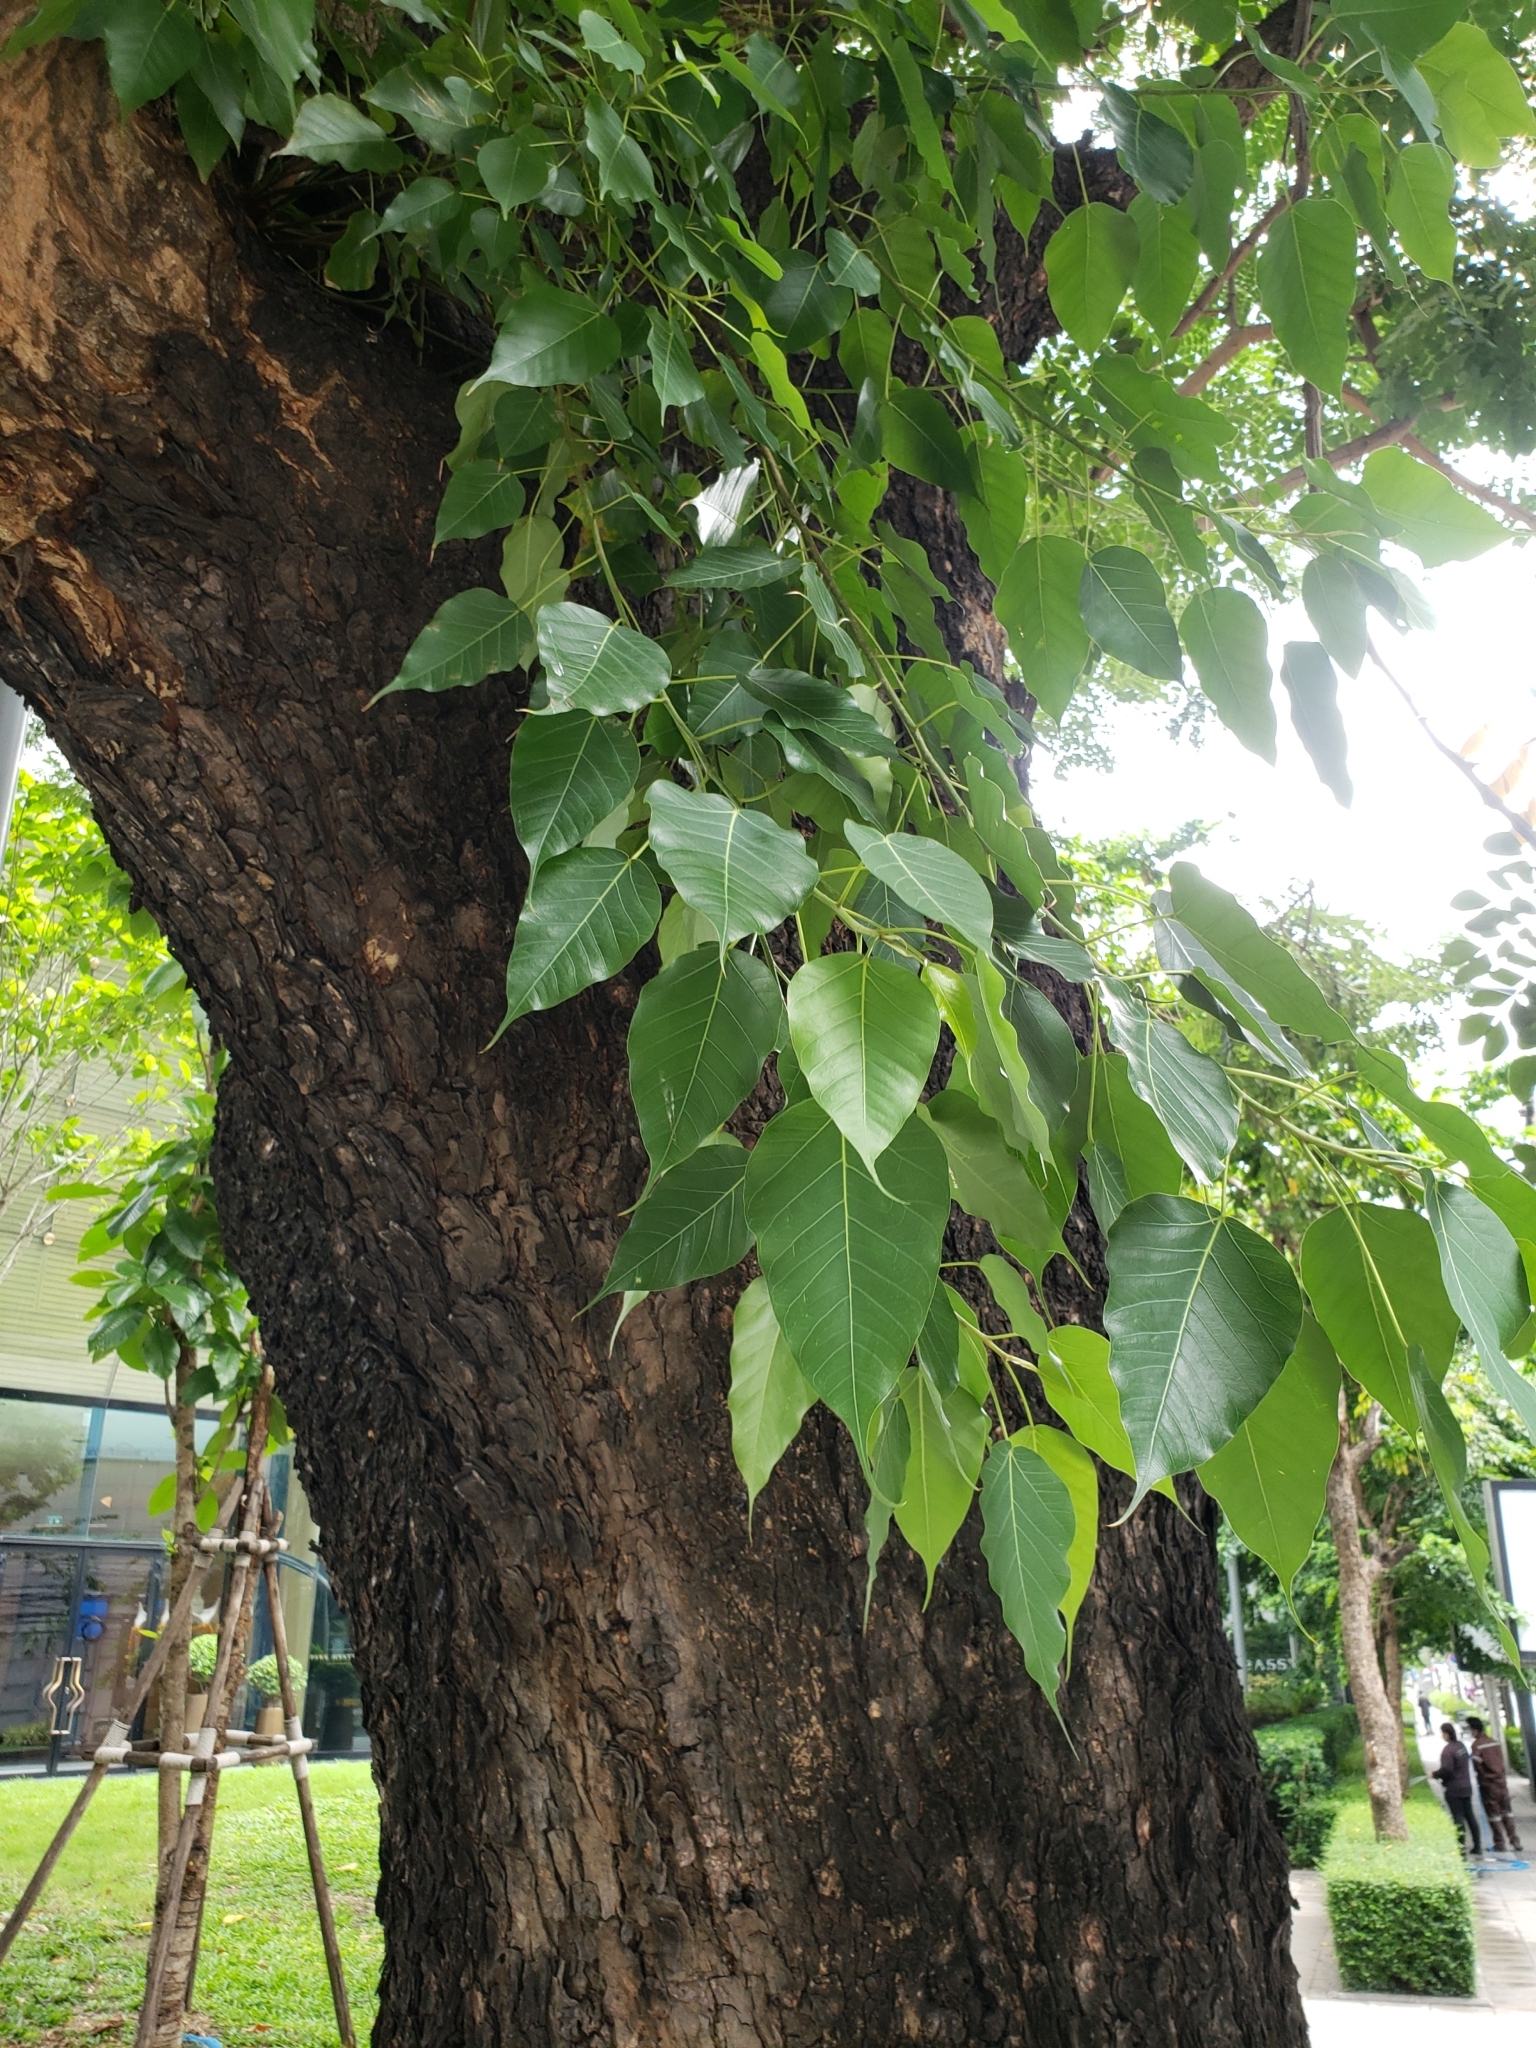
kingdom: Plantae
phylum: Tracheophyta
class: Magnoliopsida
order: Rosales
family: Moraceae
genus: Ficus
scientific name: Ficus religiosa
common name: Bodhi tree
